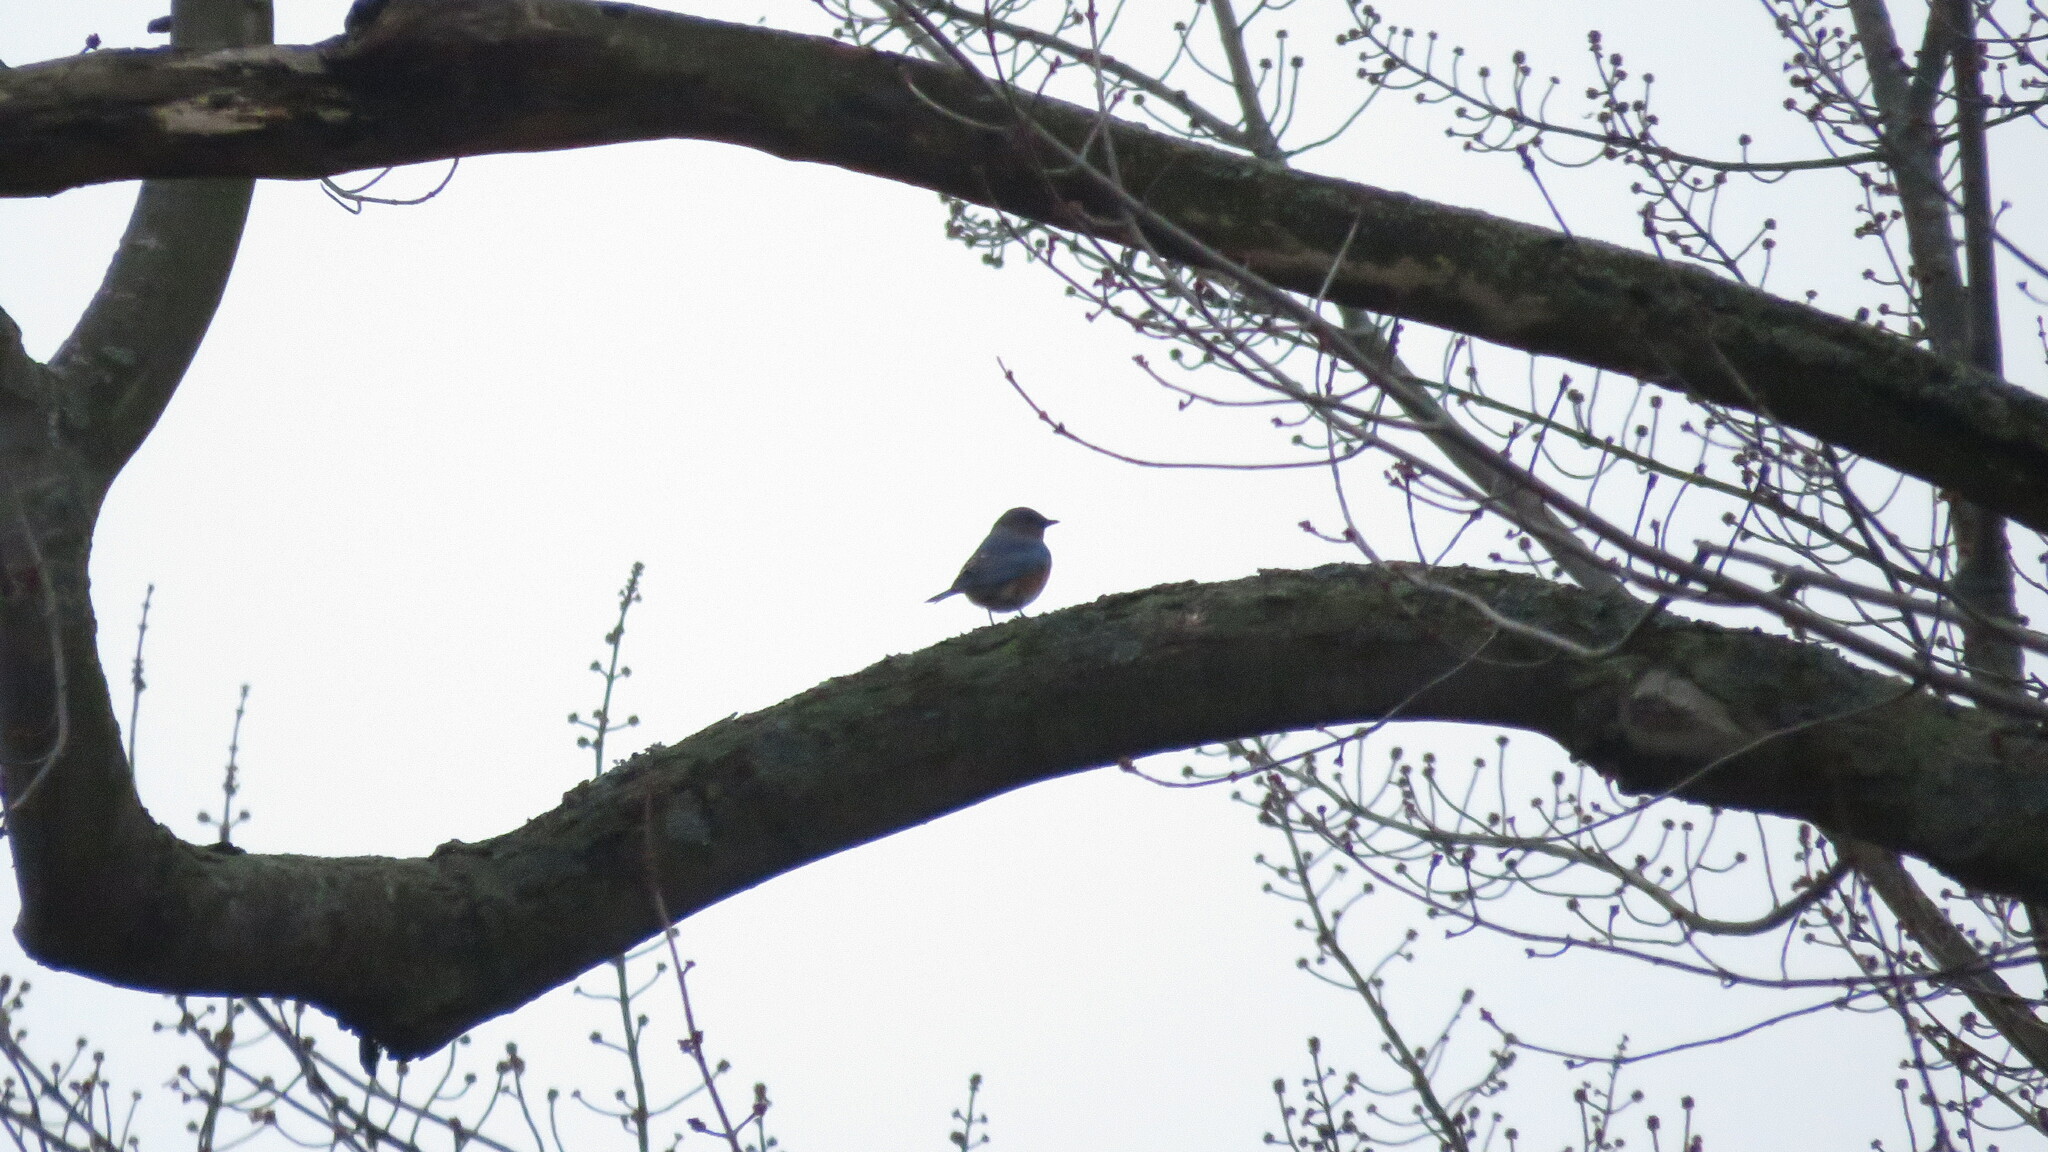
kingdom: Animalia
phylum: Chordata
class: Aves
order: Passeriformes
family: Turdidae
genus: Sialia
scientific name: Sialia sialis
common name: Eastern bluebird
